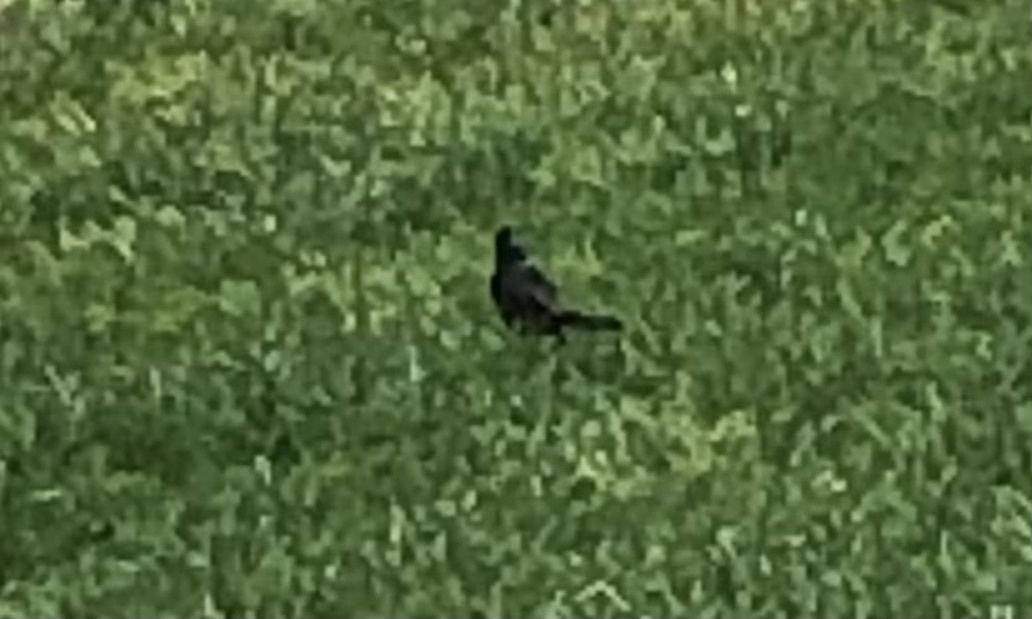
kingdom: Animalia
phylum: Chordata
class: Aves
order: Passeriformes
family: Icteridae
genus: Quiscalus
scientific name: Quiscalus quiscula
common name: Common grackle
